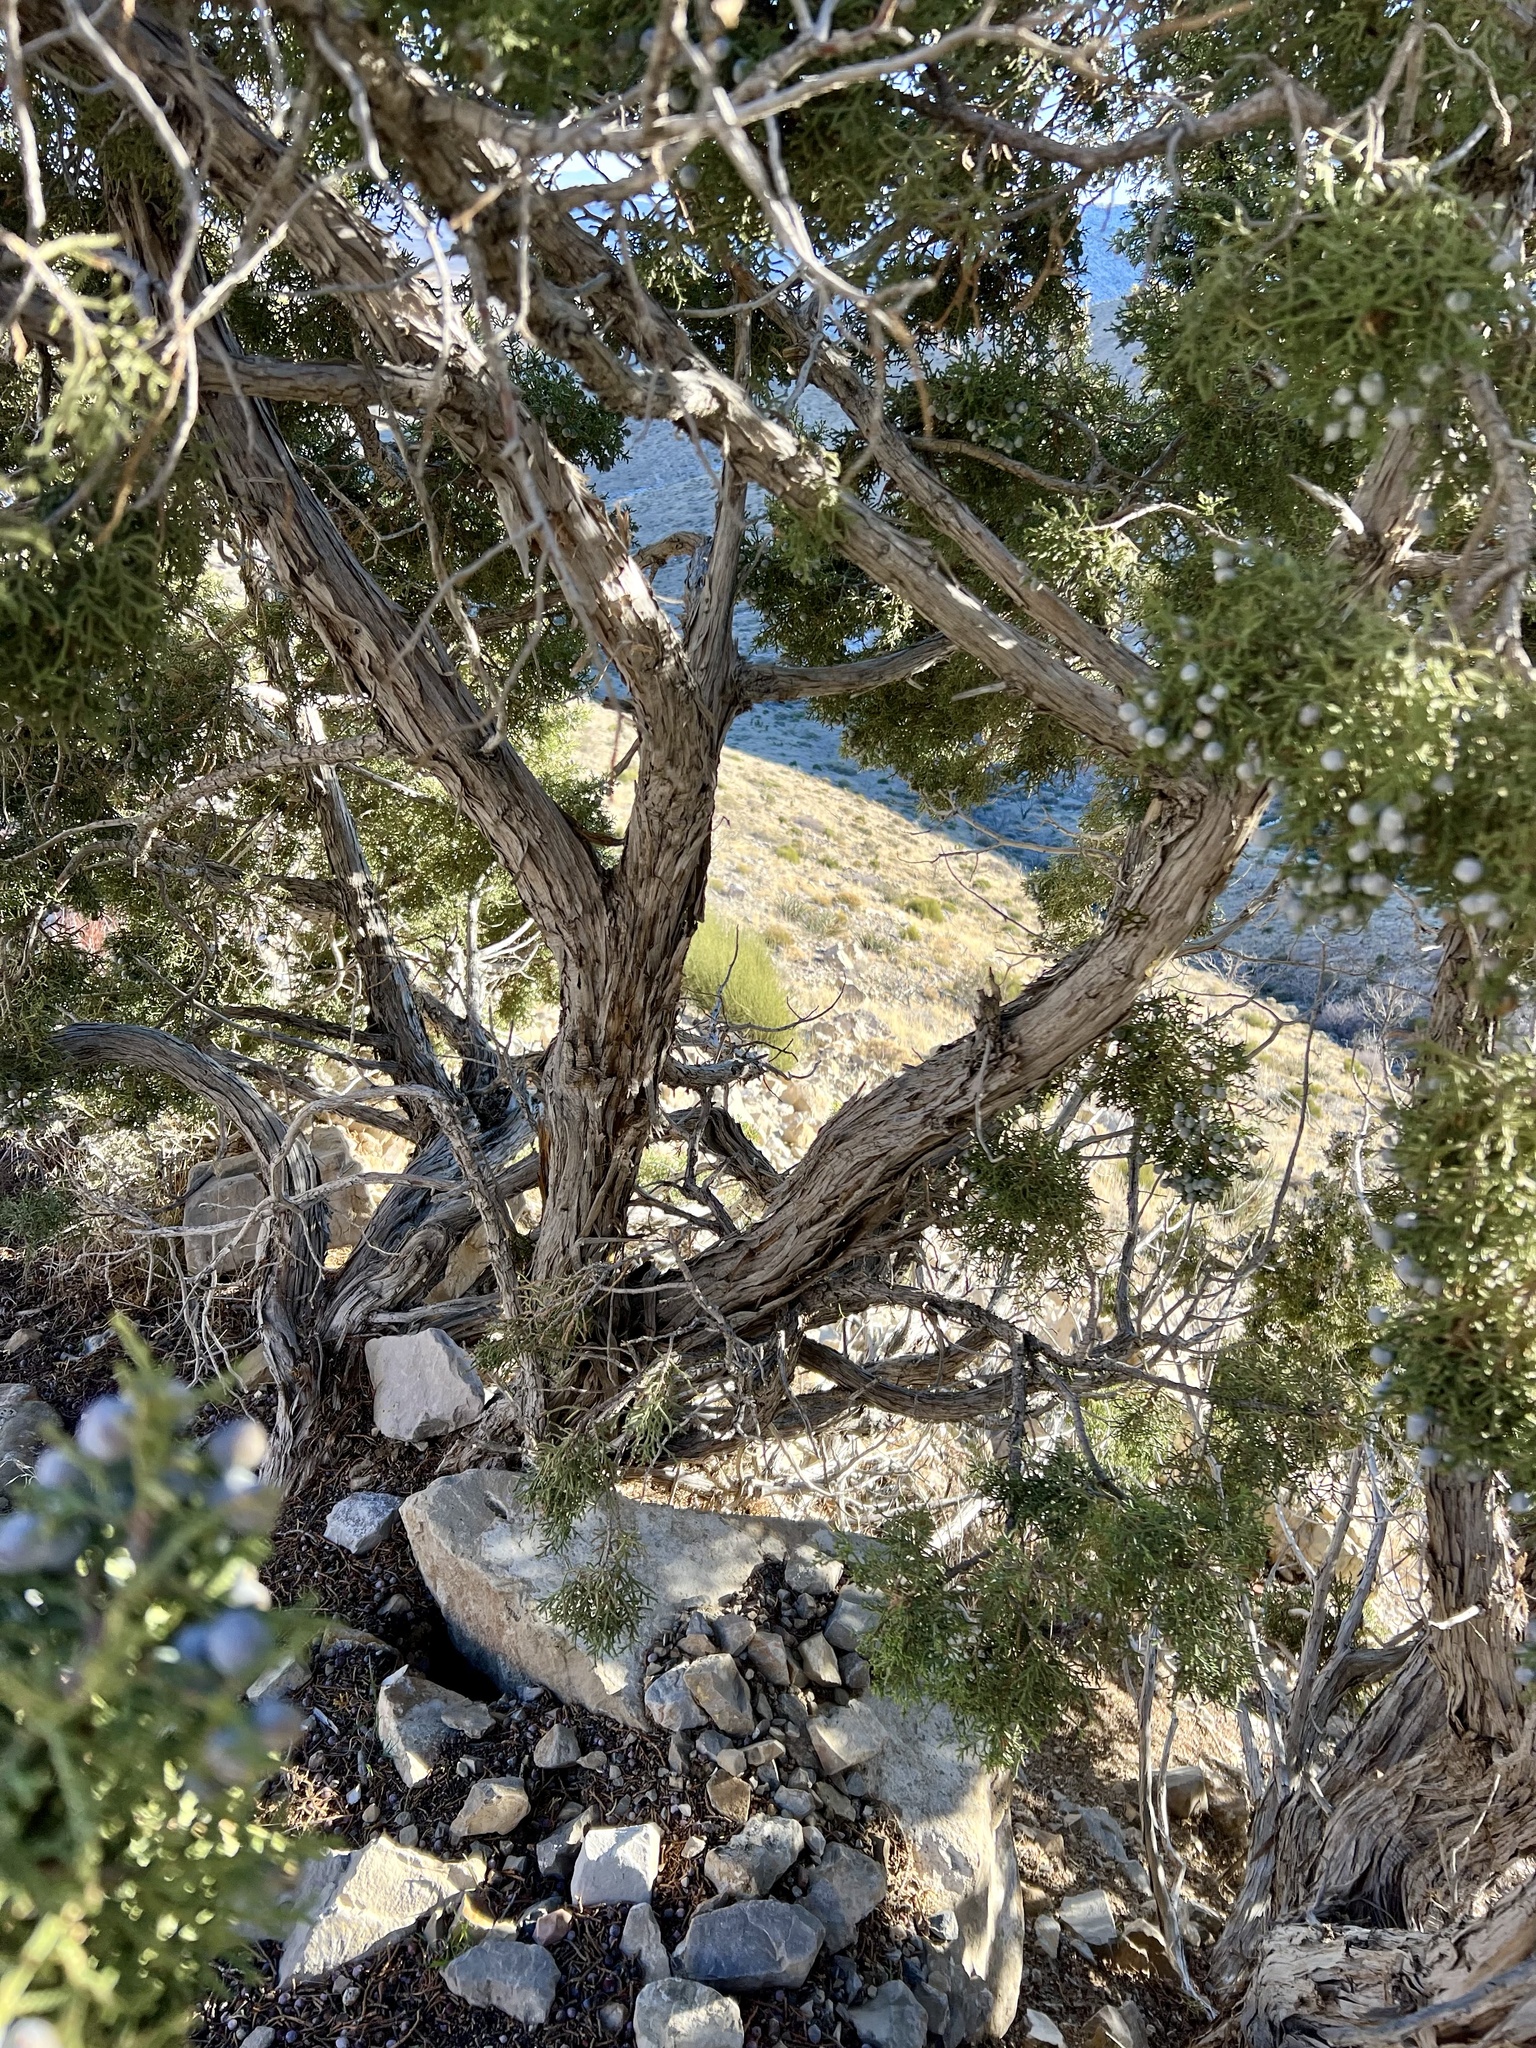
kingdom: Plantae
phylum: Tracheophyta
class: Pinopsida
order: Pinales
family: Cupressaceae
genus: Juniperus
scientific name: Juniperus osteosperma
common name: Utah juniper
